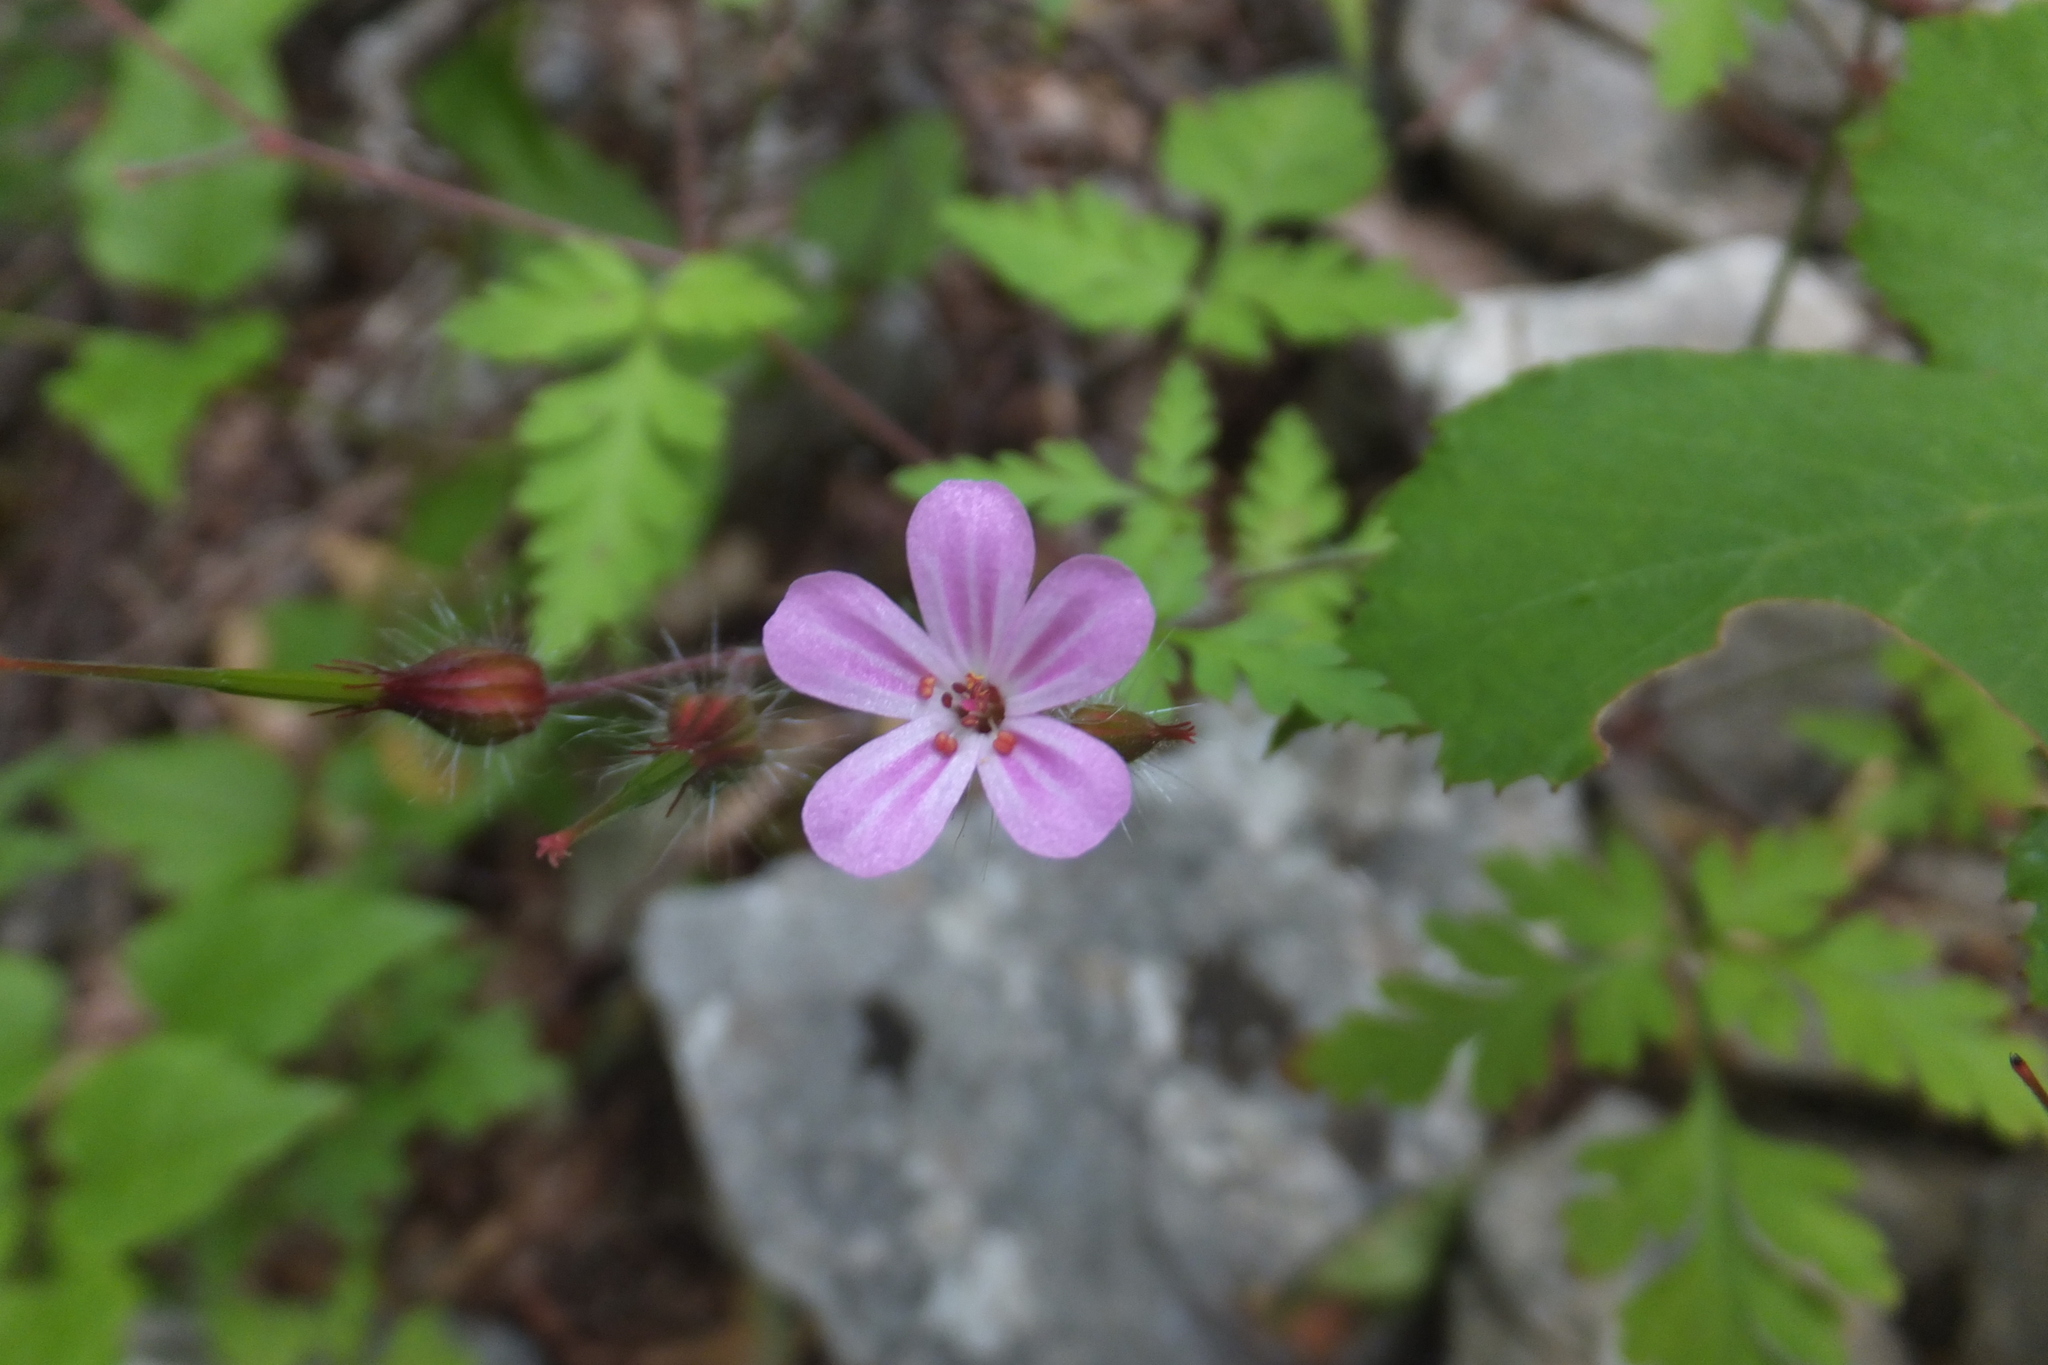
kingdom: Plantae
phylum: Tracheophyta
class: Magnoliopsida
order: Geraniales
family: Geraniaceae
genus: Geranium
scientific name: Geranium robertianum
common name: Herb-robert
